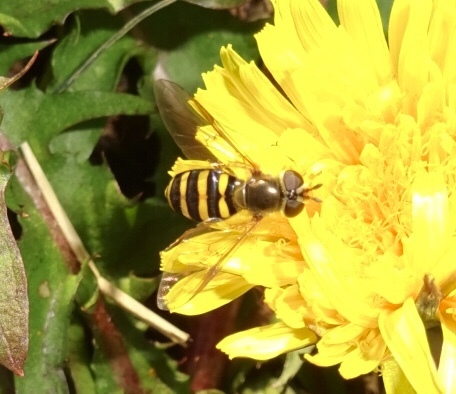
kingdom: Animalia
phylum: Arthropoda
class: Insecta
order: Diptera
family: Syrphidae
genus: Eupeodes
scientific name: Eupeodes
